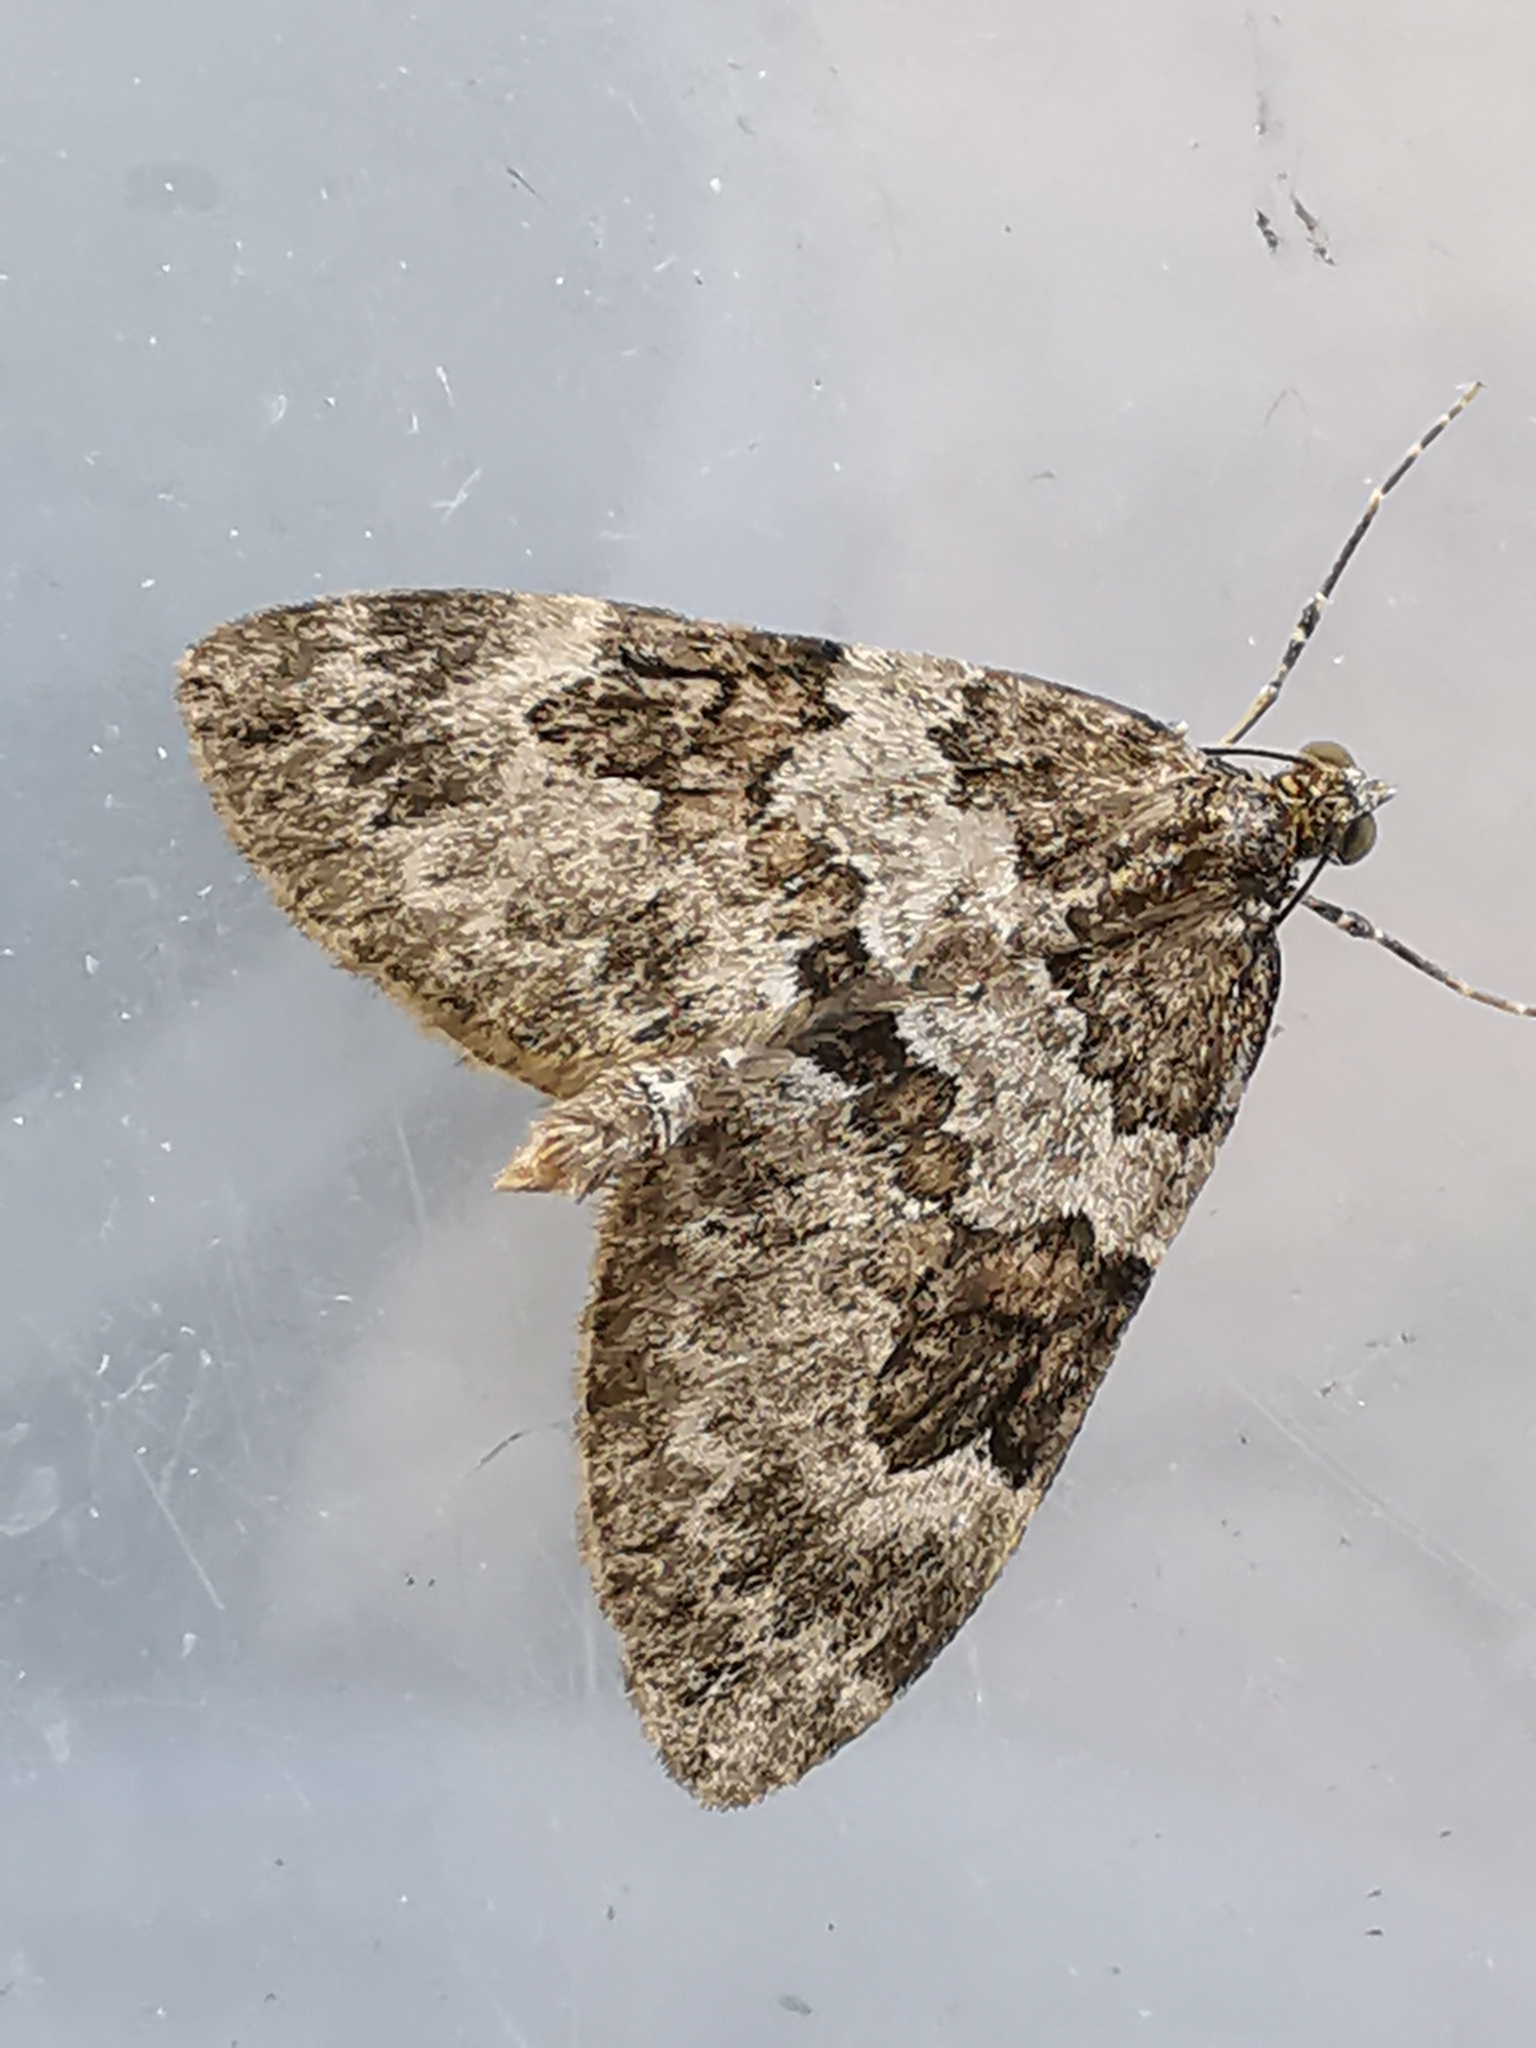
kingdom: Animalia
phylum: Arthropoda
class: Insecta
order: Lepidoptera
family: Geometridae
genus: Thera
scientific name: Thera britannica
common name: Spruce carpet
